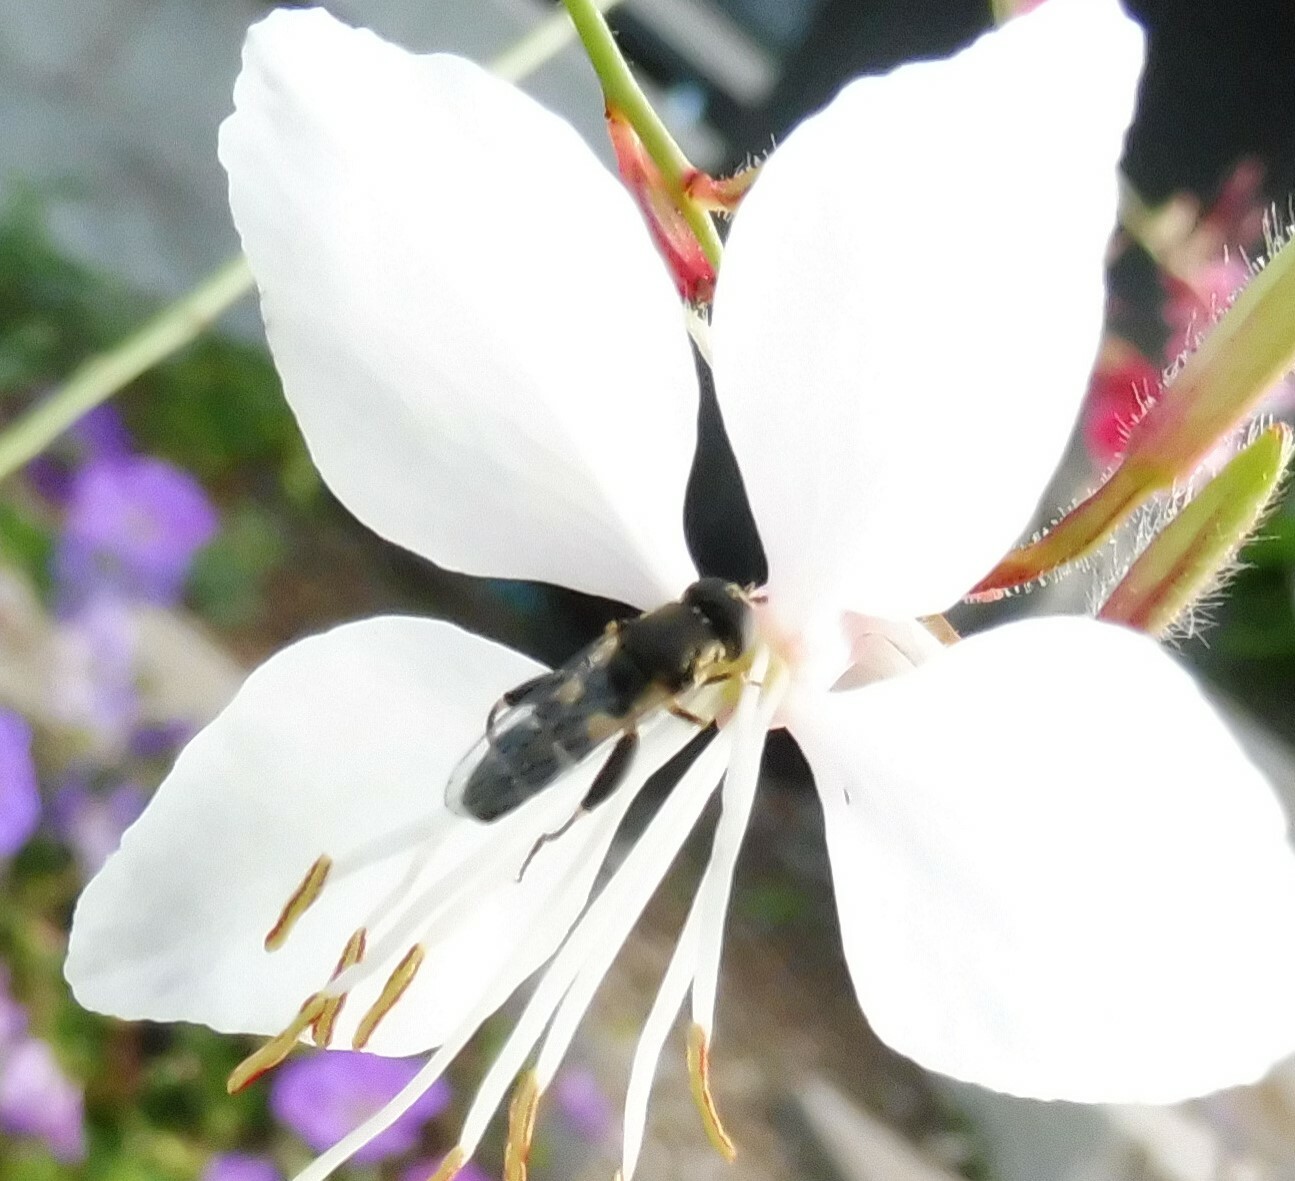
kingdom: Animalia
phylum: Arthropoda
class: Insecta
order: Diptera
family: Syrphidae
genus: Syritta
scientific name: Syritta pipiens
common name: Hover fly
